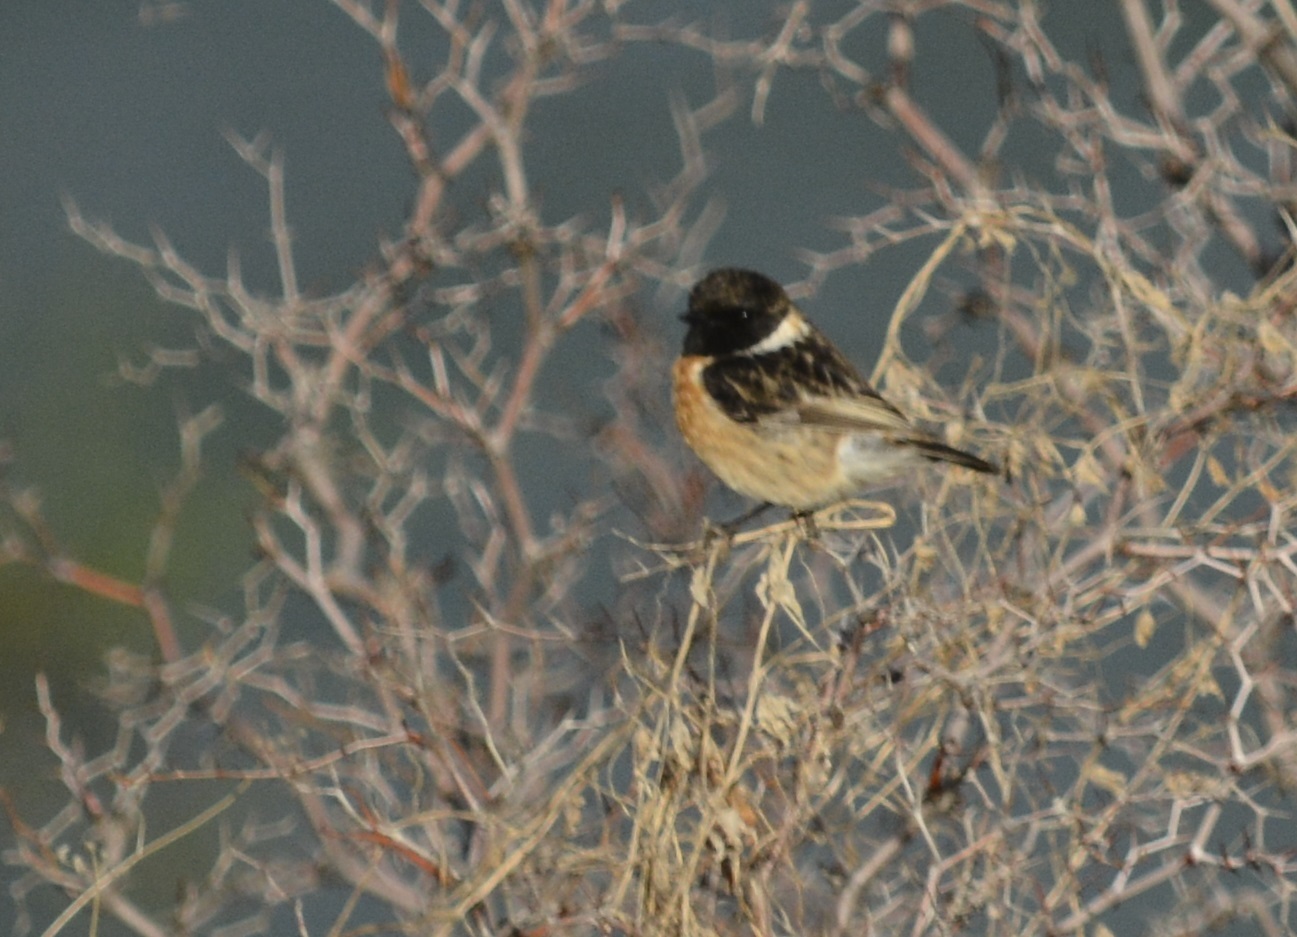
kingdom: Animalia
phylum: Chordata
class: Aves
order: Passeriformes
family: Muscicapidae
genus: Saxicola
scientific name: Saxicola rubicola
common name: European stonechat
